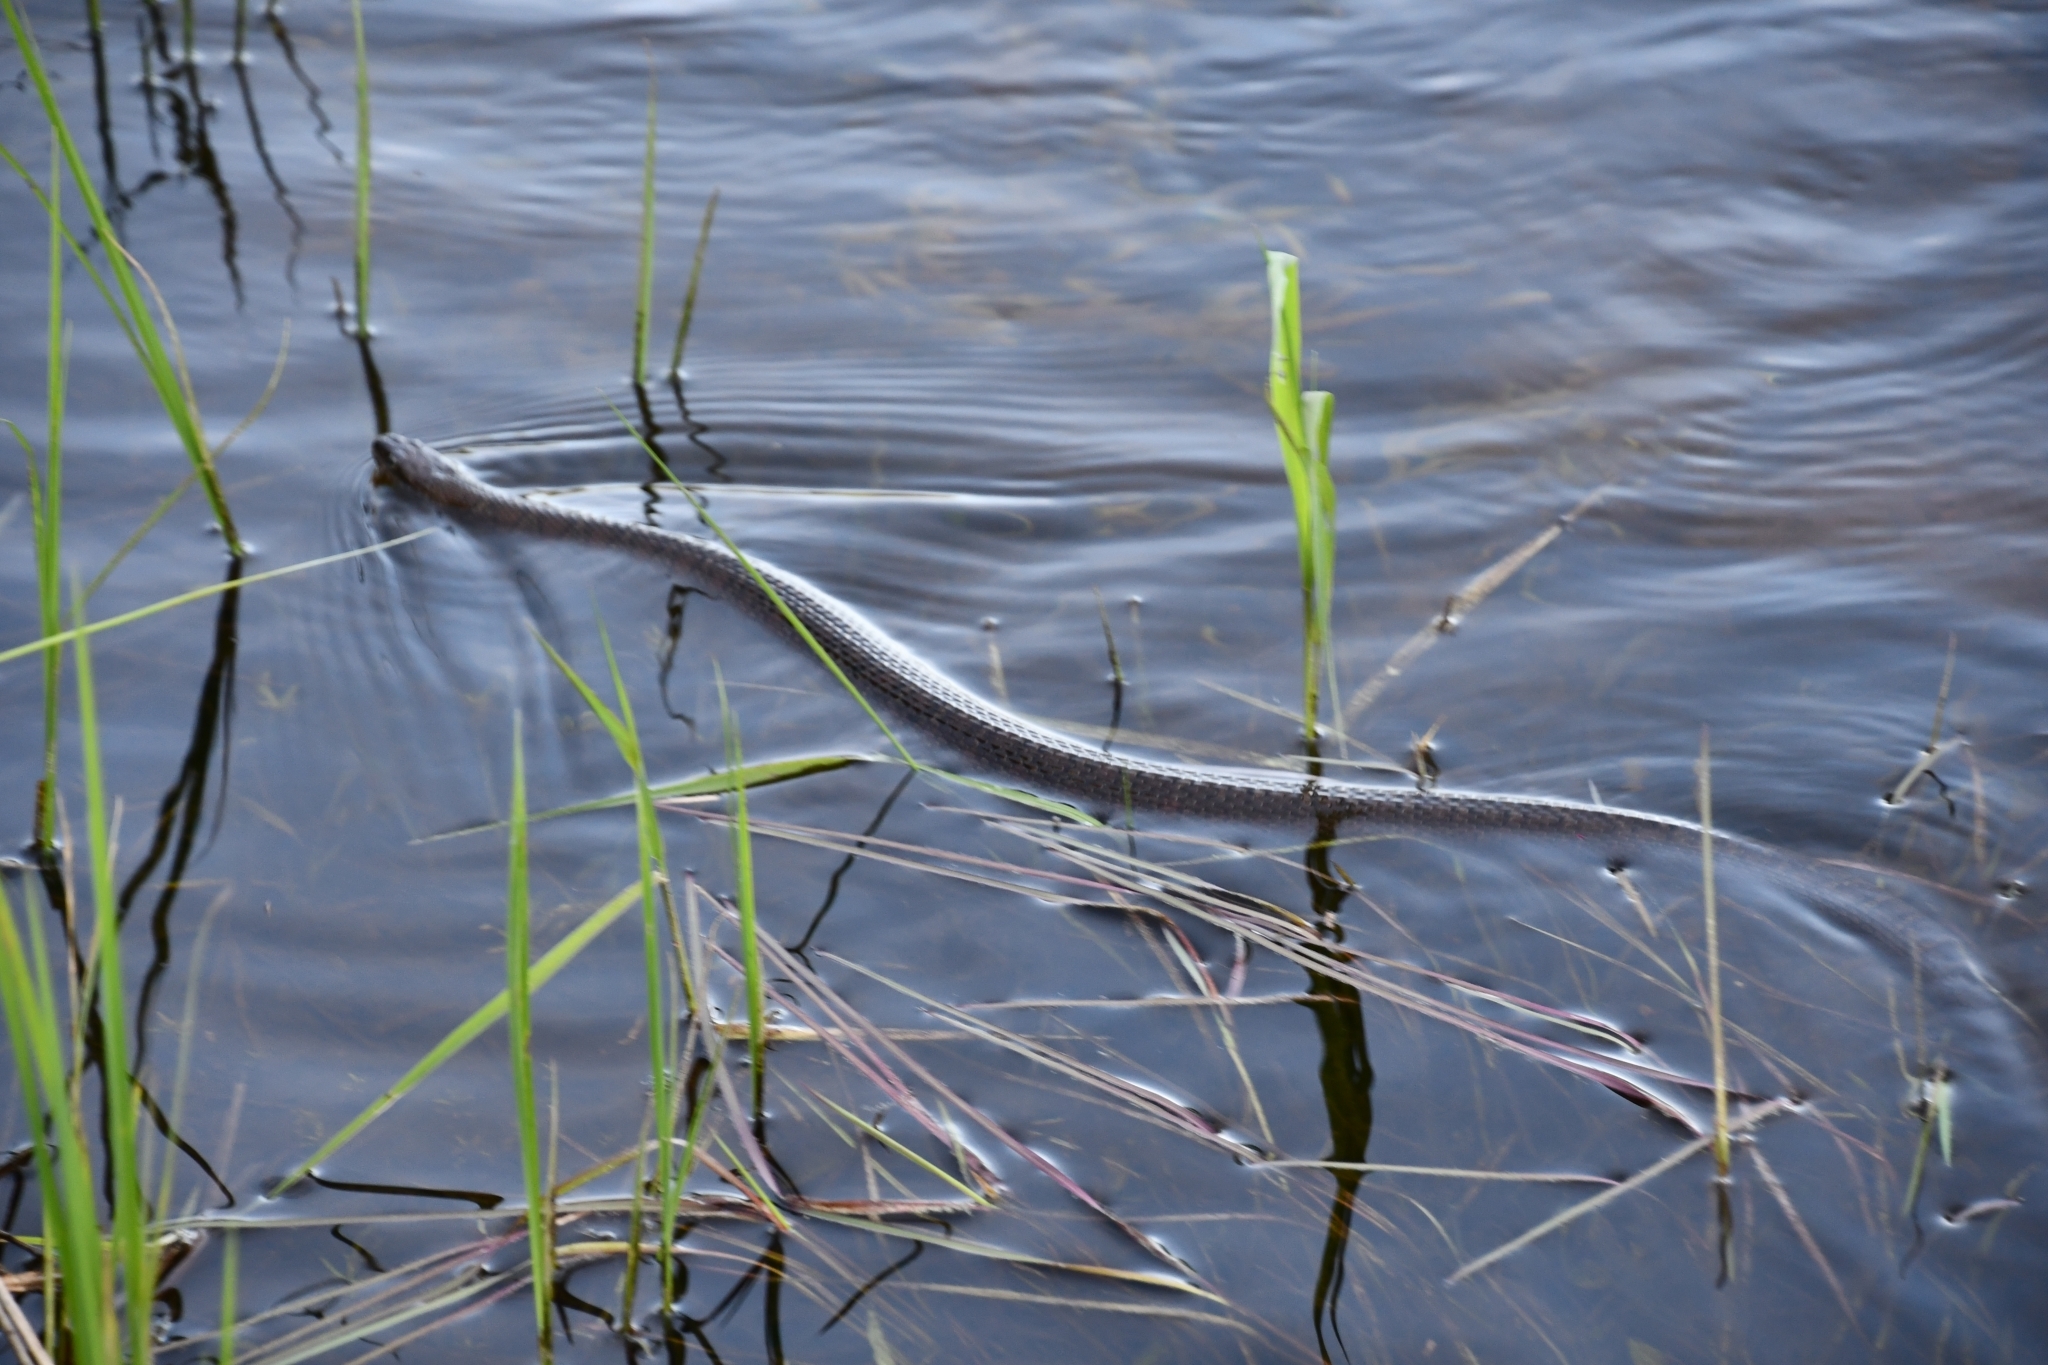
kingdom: Animalia
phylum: Chordata
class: Squamata
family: Colubridae
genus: Nerodia
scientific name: Nerodia sipedon
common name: Northern water snake
